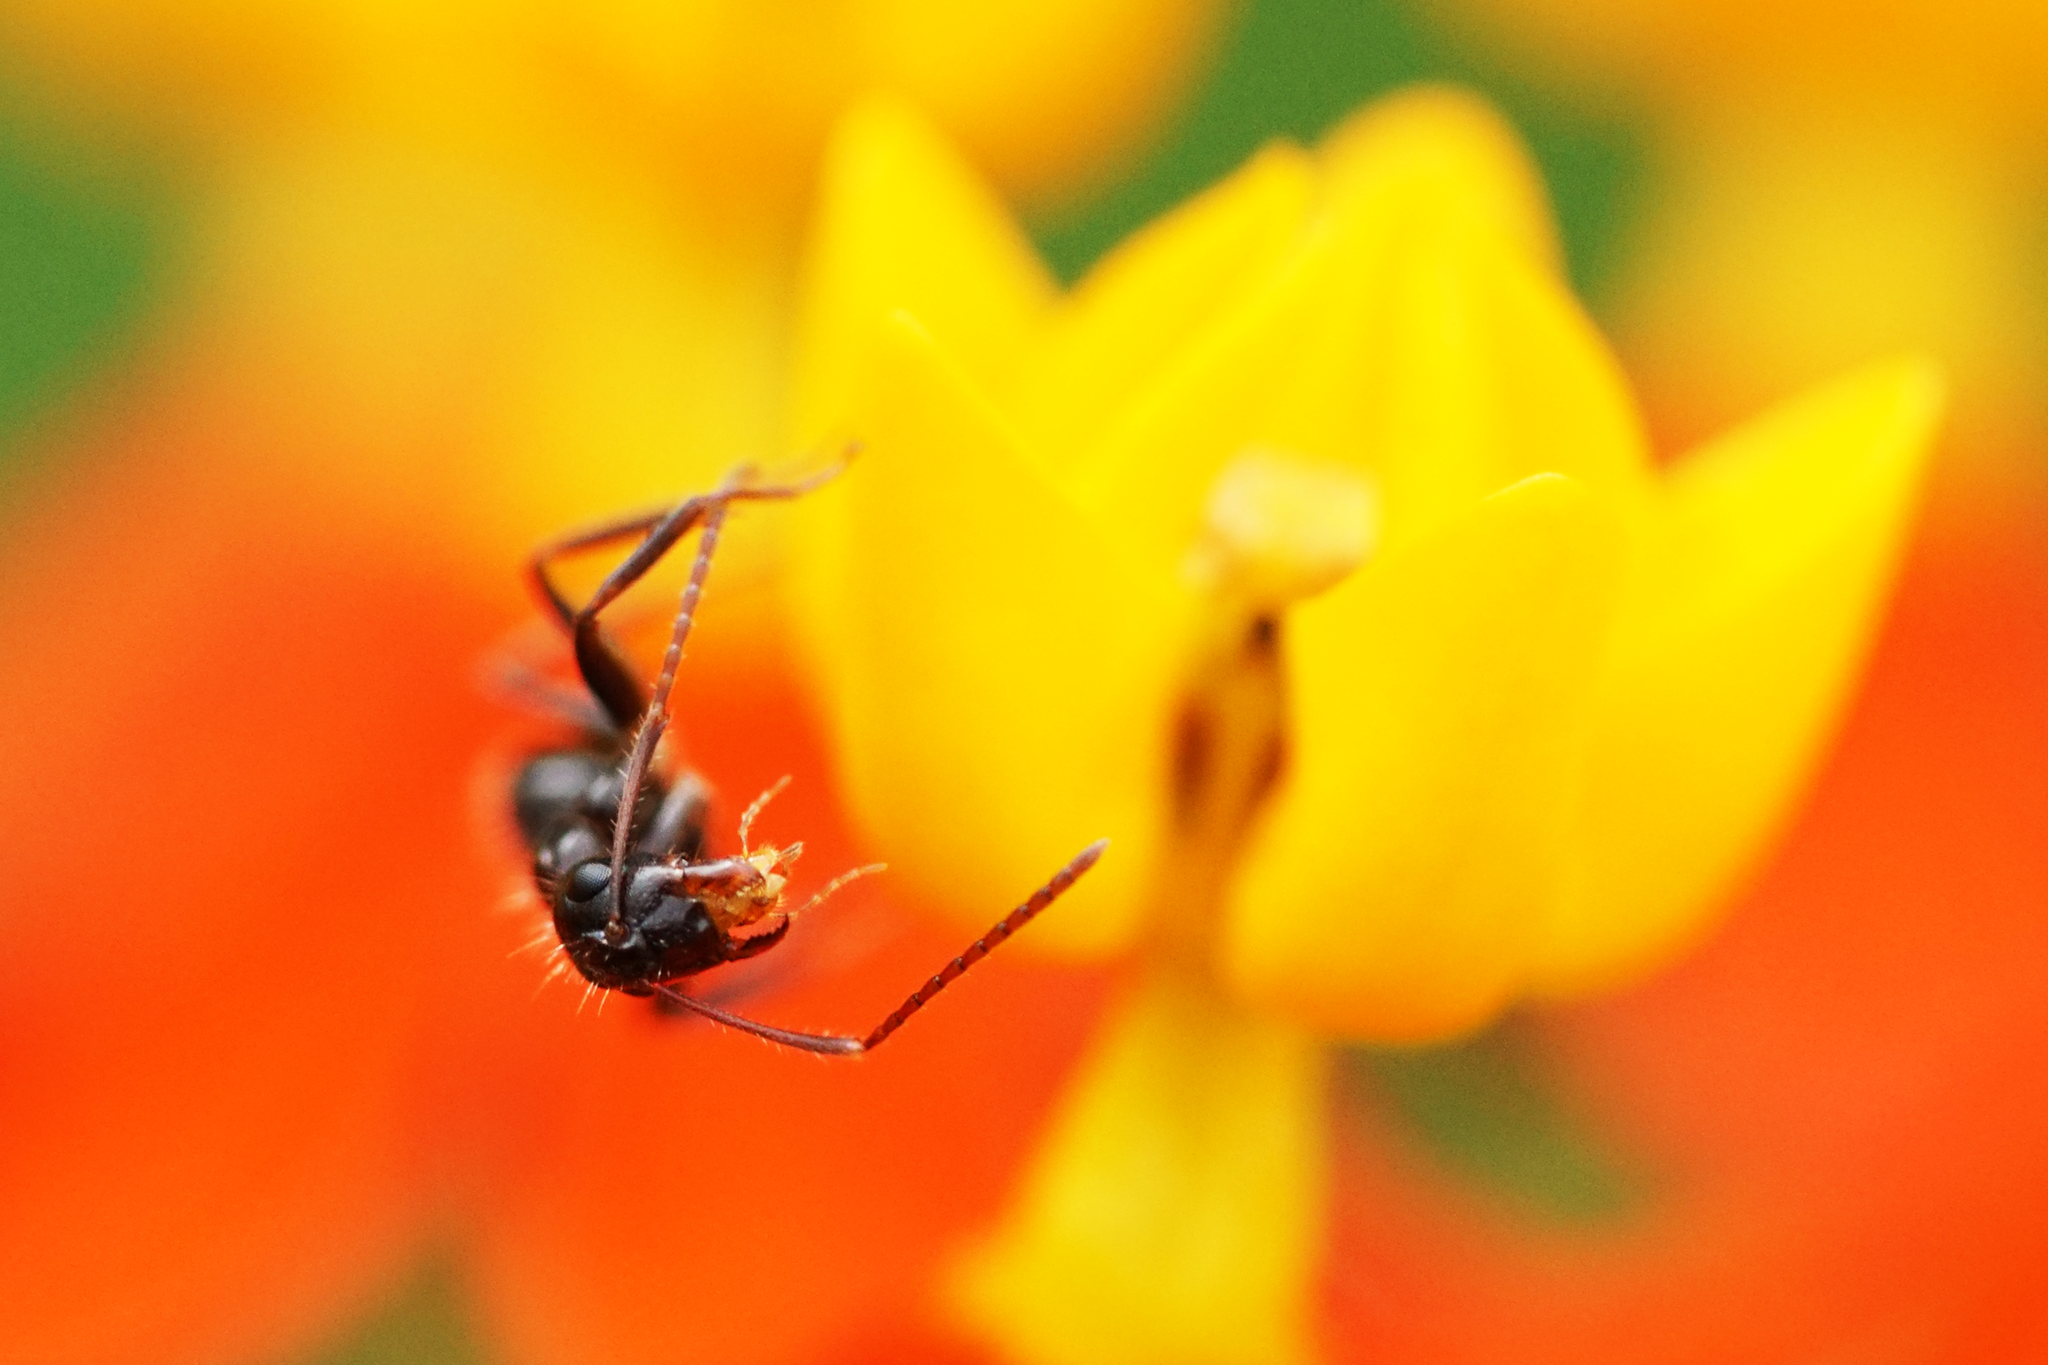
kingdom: Animalia
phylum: Arthropoda
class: Insecta
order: Hymenoptera
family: Formicidae
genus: Camponotus
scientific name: Camponotus sexguttatus
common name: Neotropical carpenter ant
